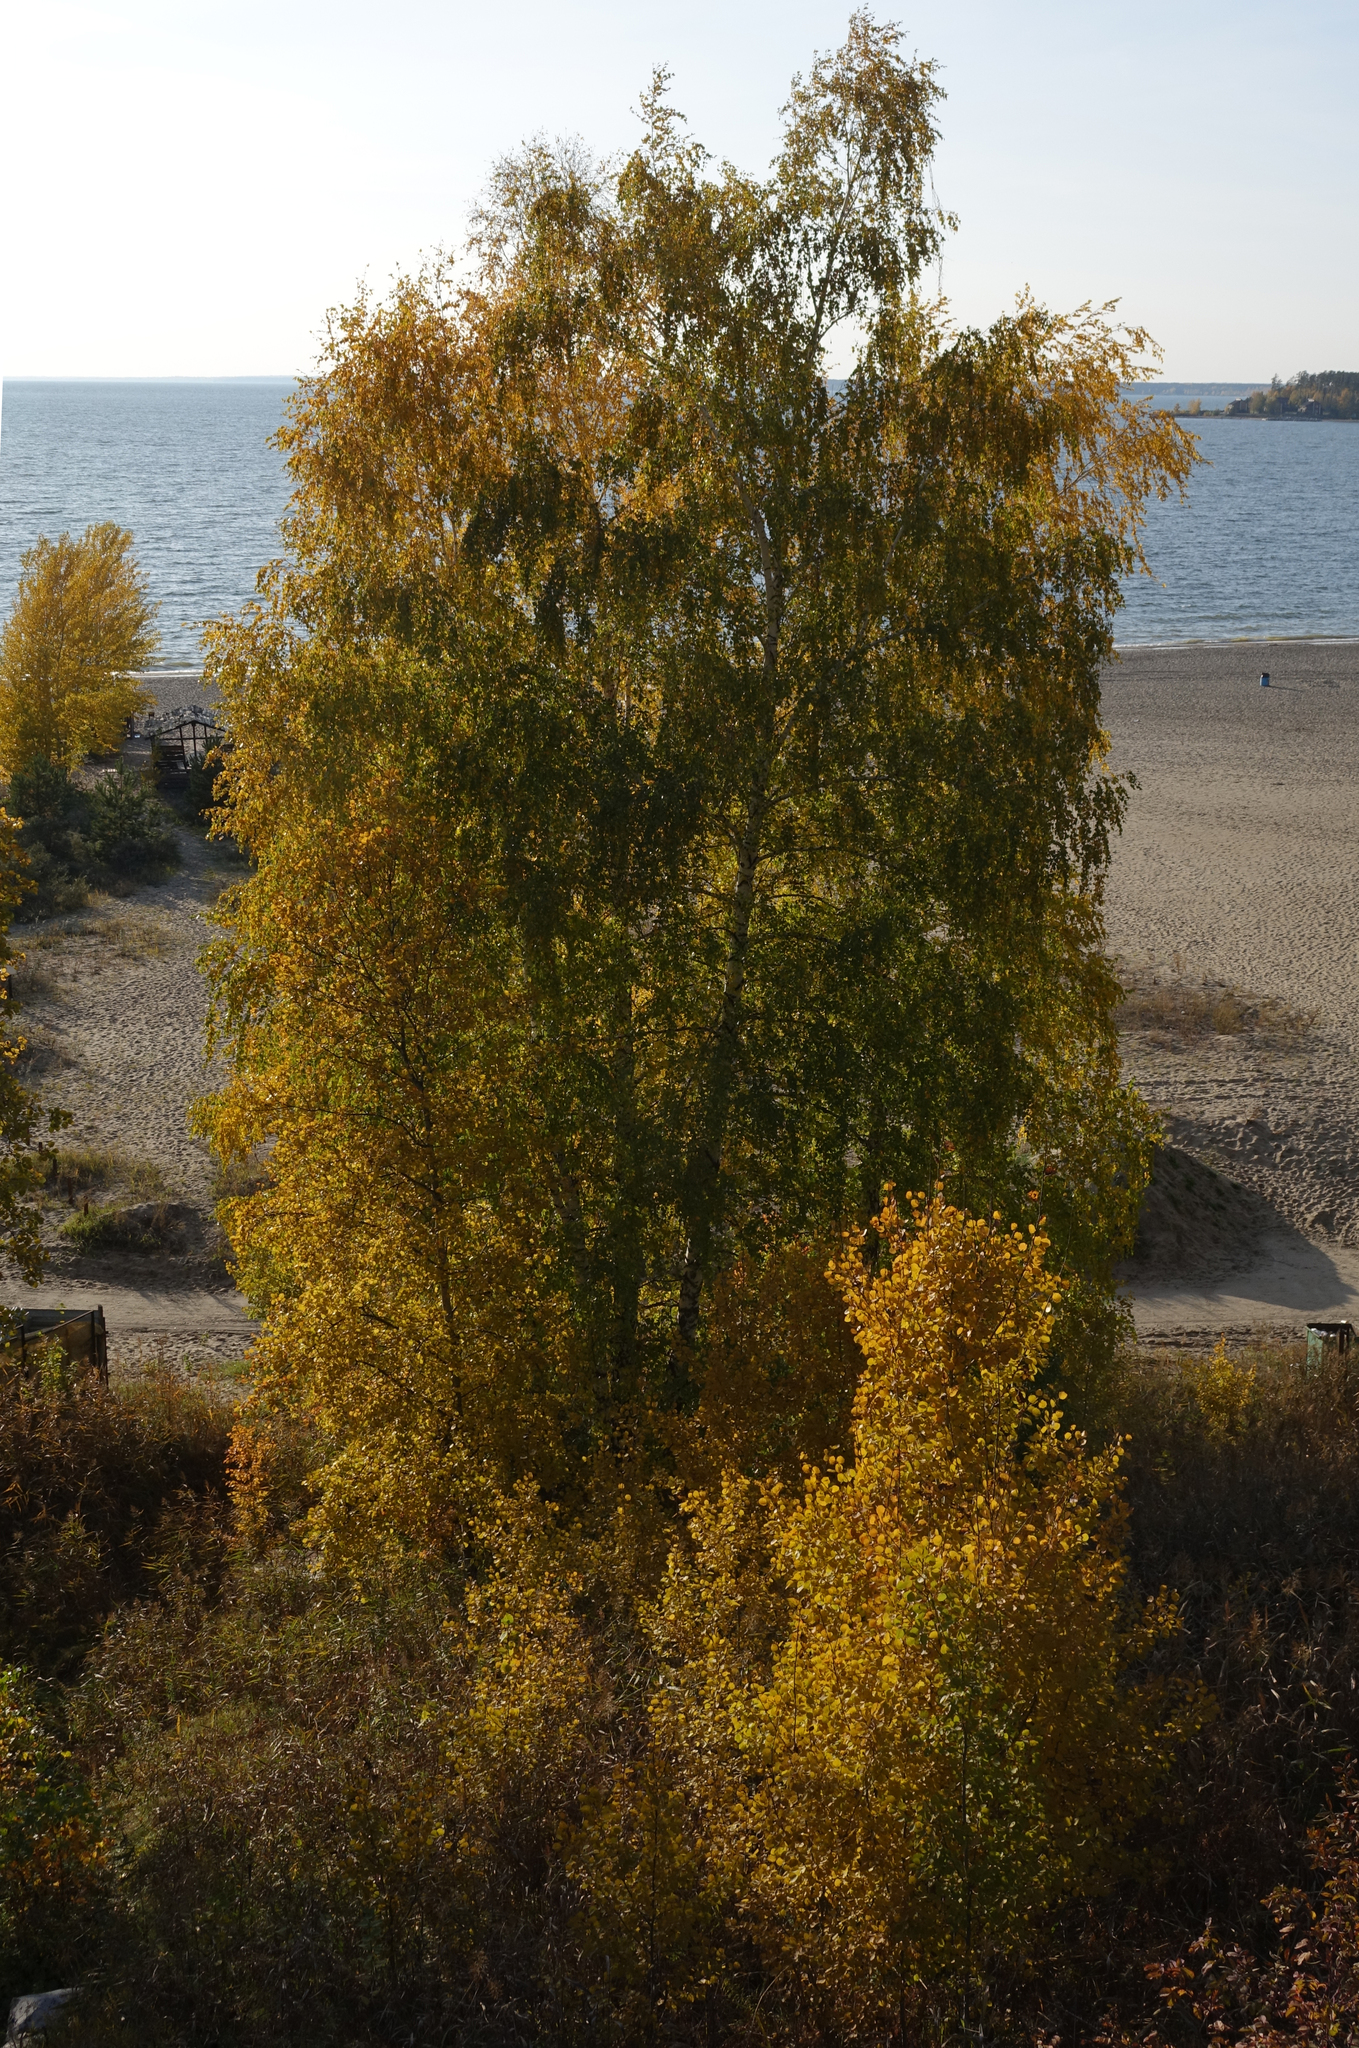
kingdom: Plantae
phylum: Tracheophyta
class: Magnoliopsida
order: Fagales
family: Betulaceae
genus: Betula
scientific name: Betula pendula
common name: Silver birch
